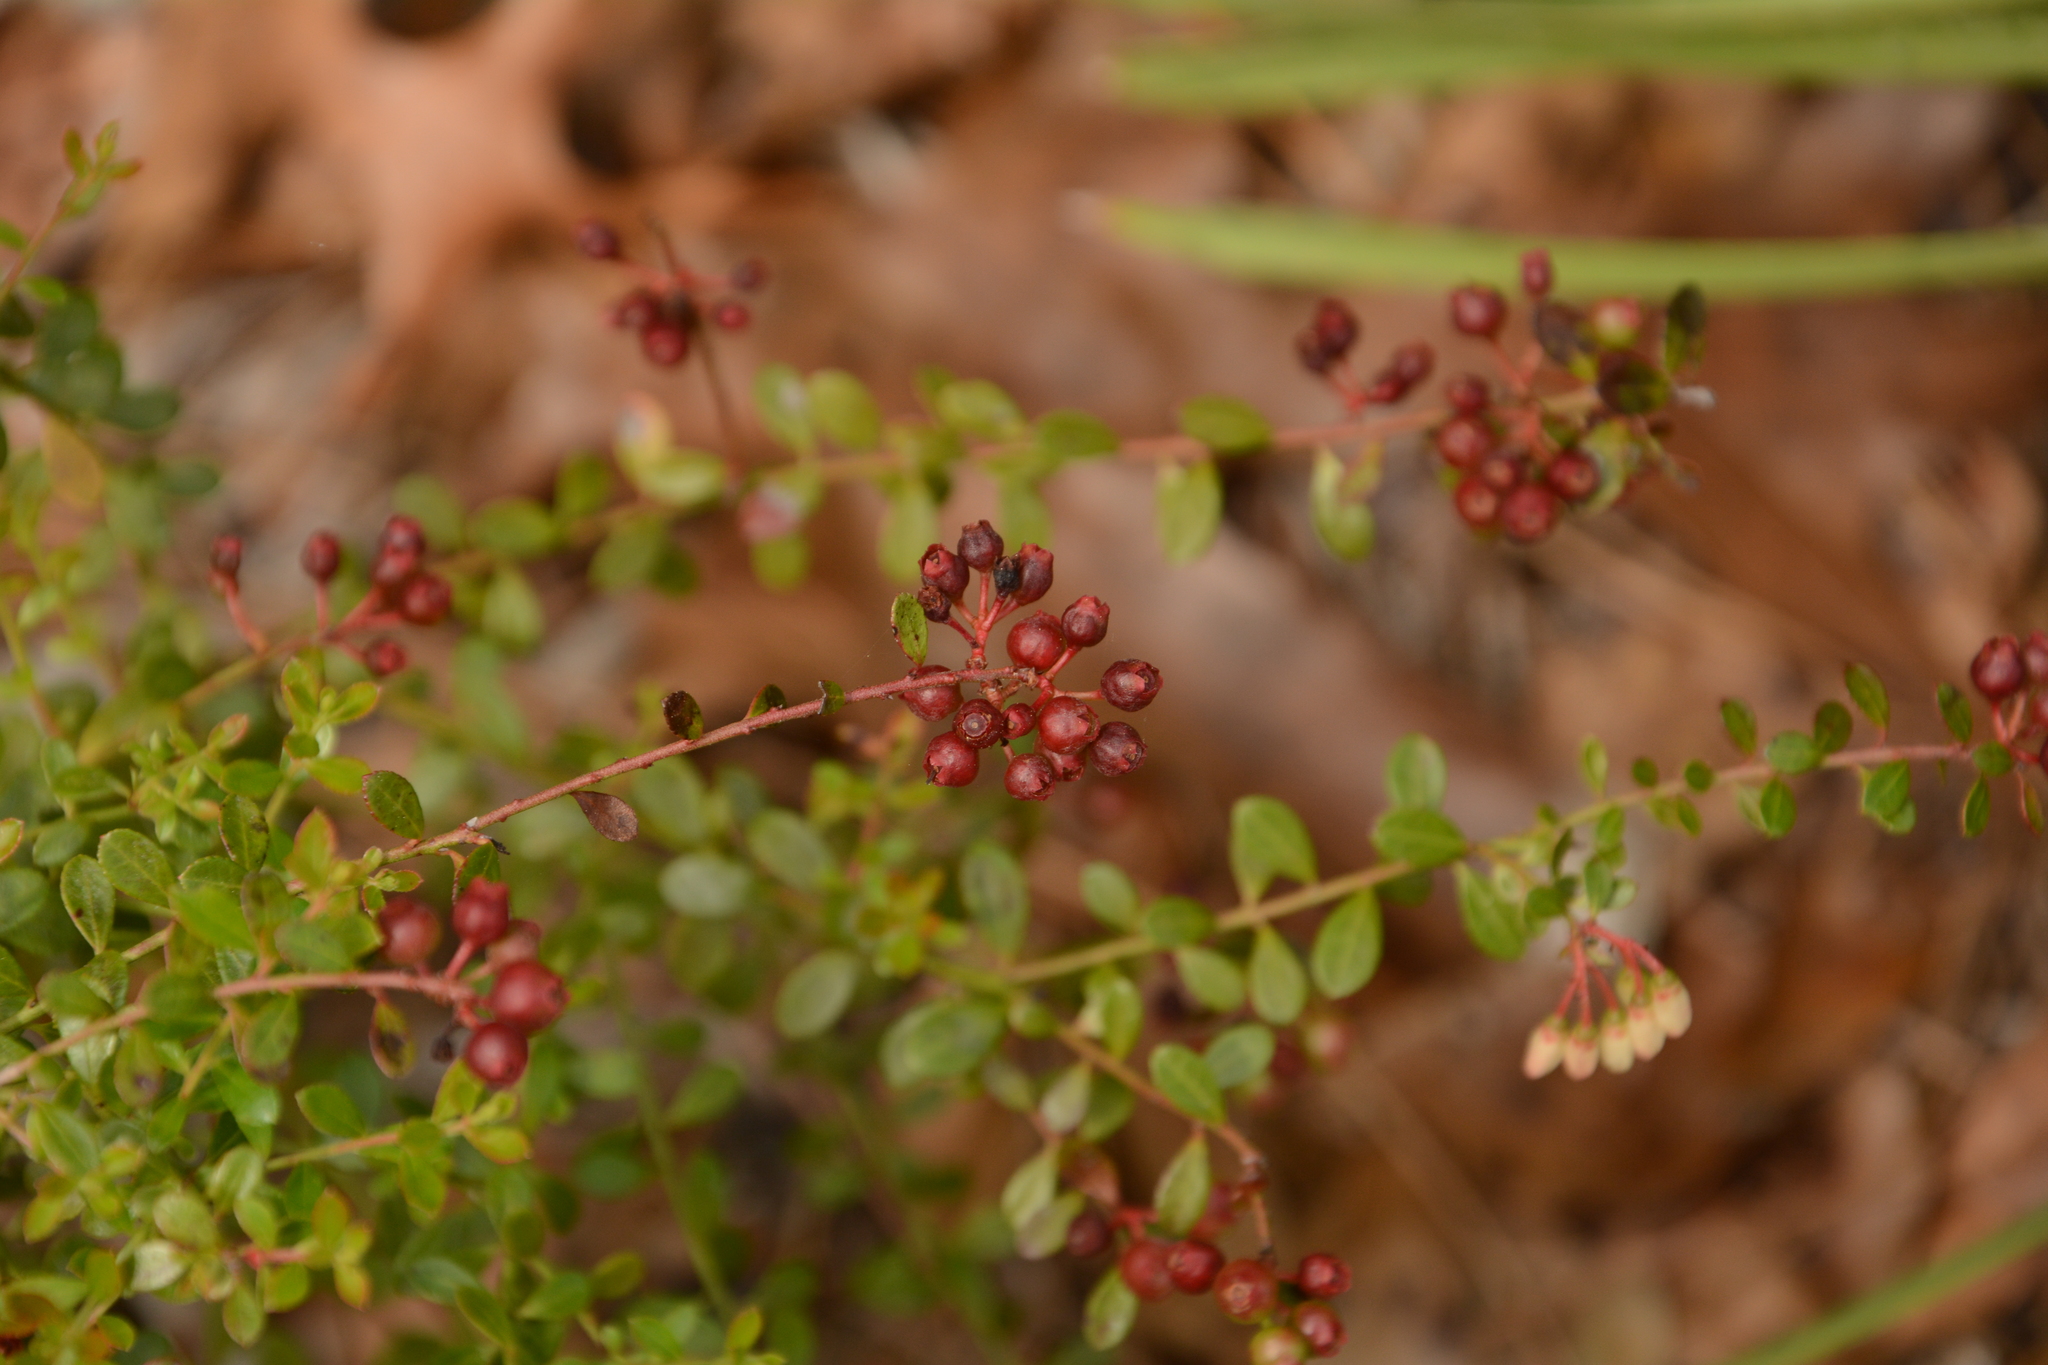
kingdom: Plantae
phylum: Tracheophyta
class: Magnoliopsida
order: Ericales
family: Ericaceae
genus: Vaccinium
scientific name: Vaccinium myrsinites
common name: Evergreen blueberry
